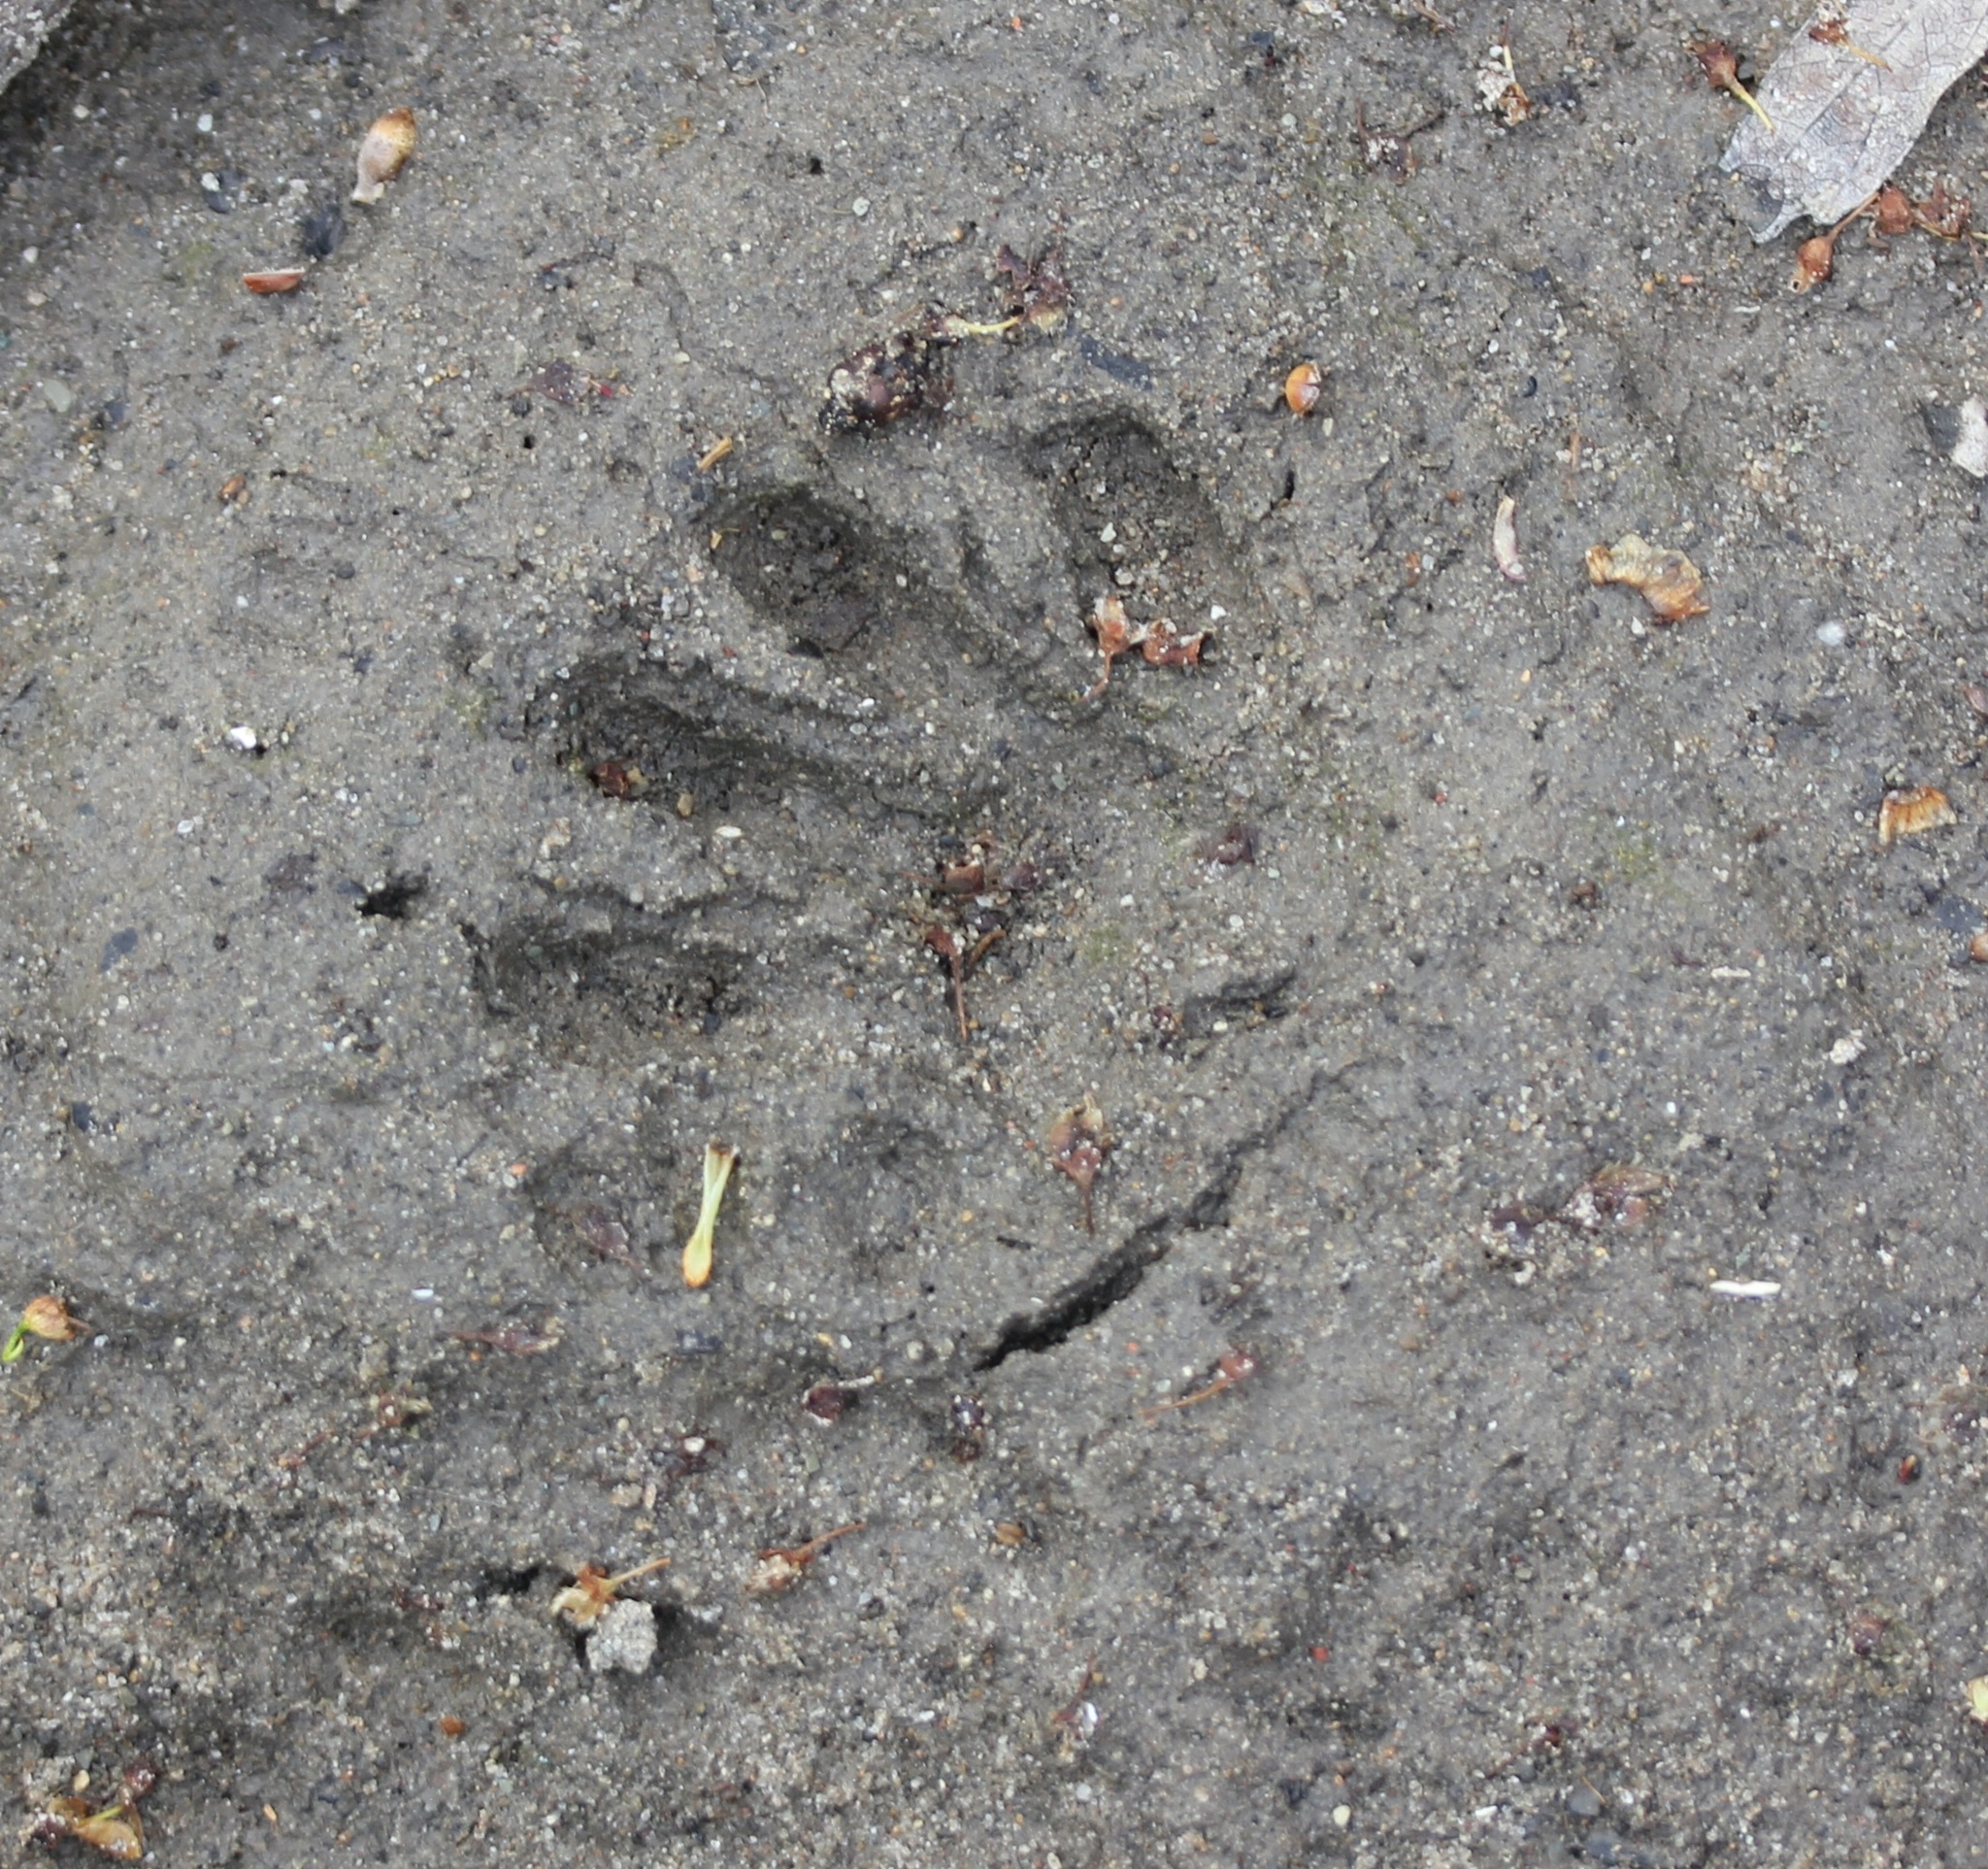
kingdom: Animalia
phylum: Chordata
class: Mammalia
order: Carnivora
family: Procyonidae
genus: Procyon
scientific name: Procyon lotor
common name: Raccoon
